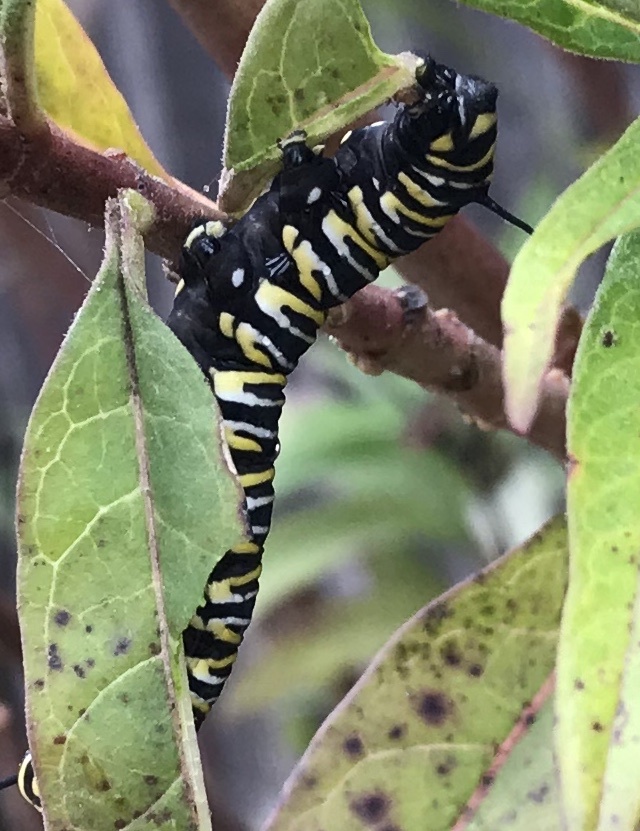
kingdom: Animalia
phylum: Arthropoda
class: Insecta
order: Lepidoptera
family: Nymphalidae
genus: Danaus
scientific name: Danaus plexippus
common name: Monarch
